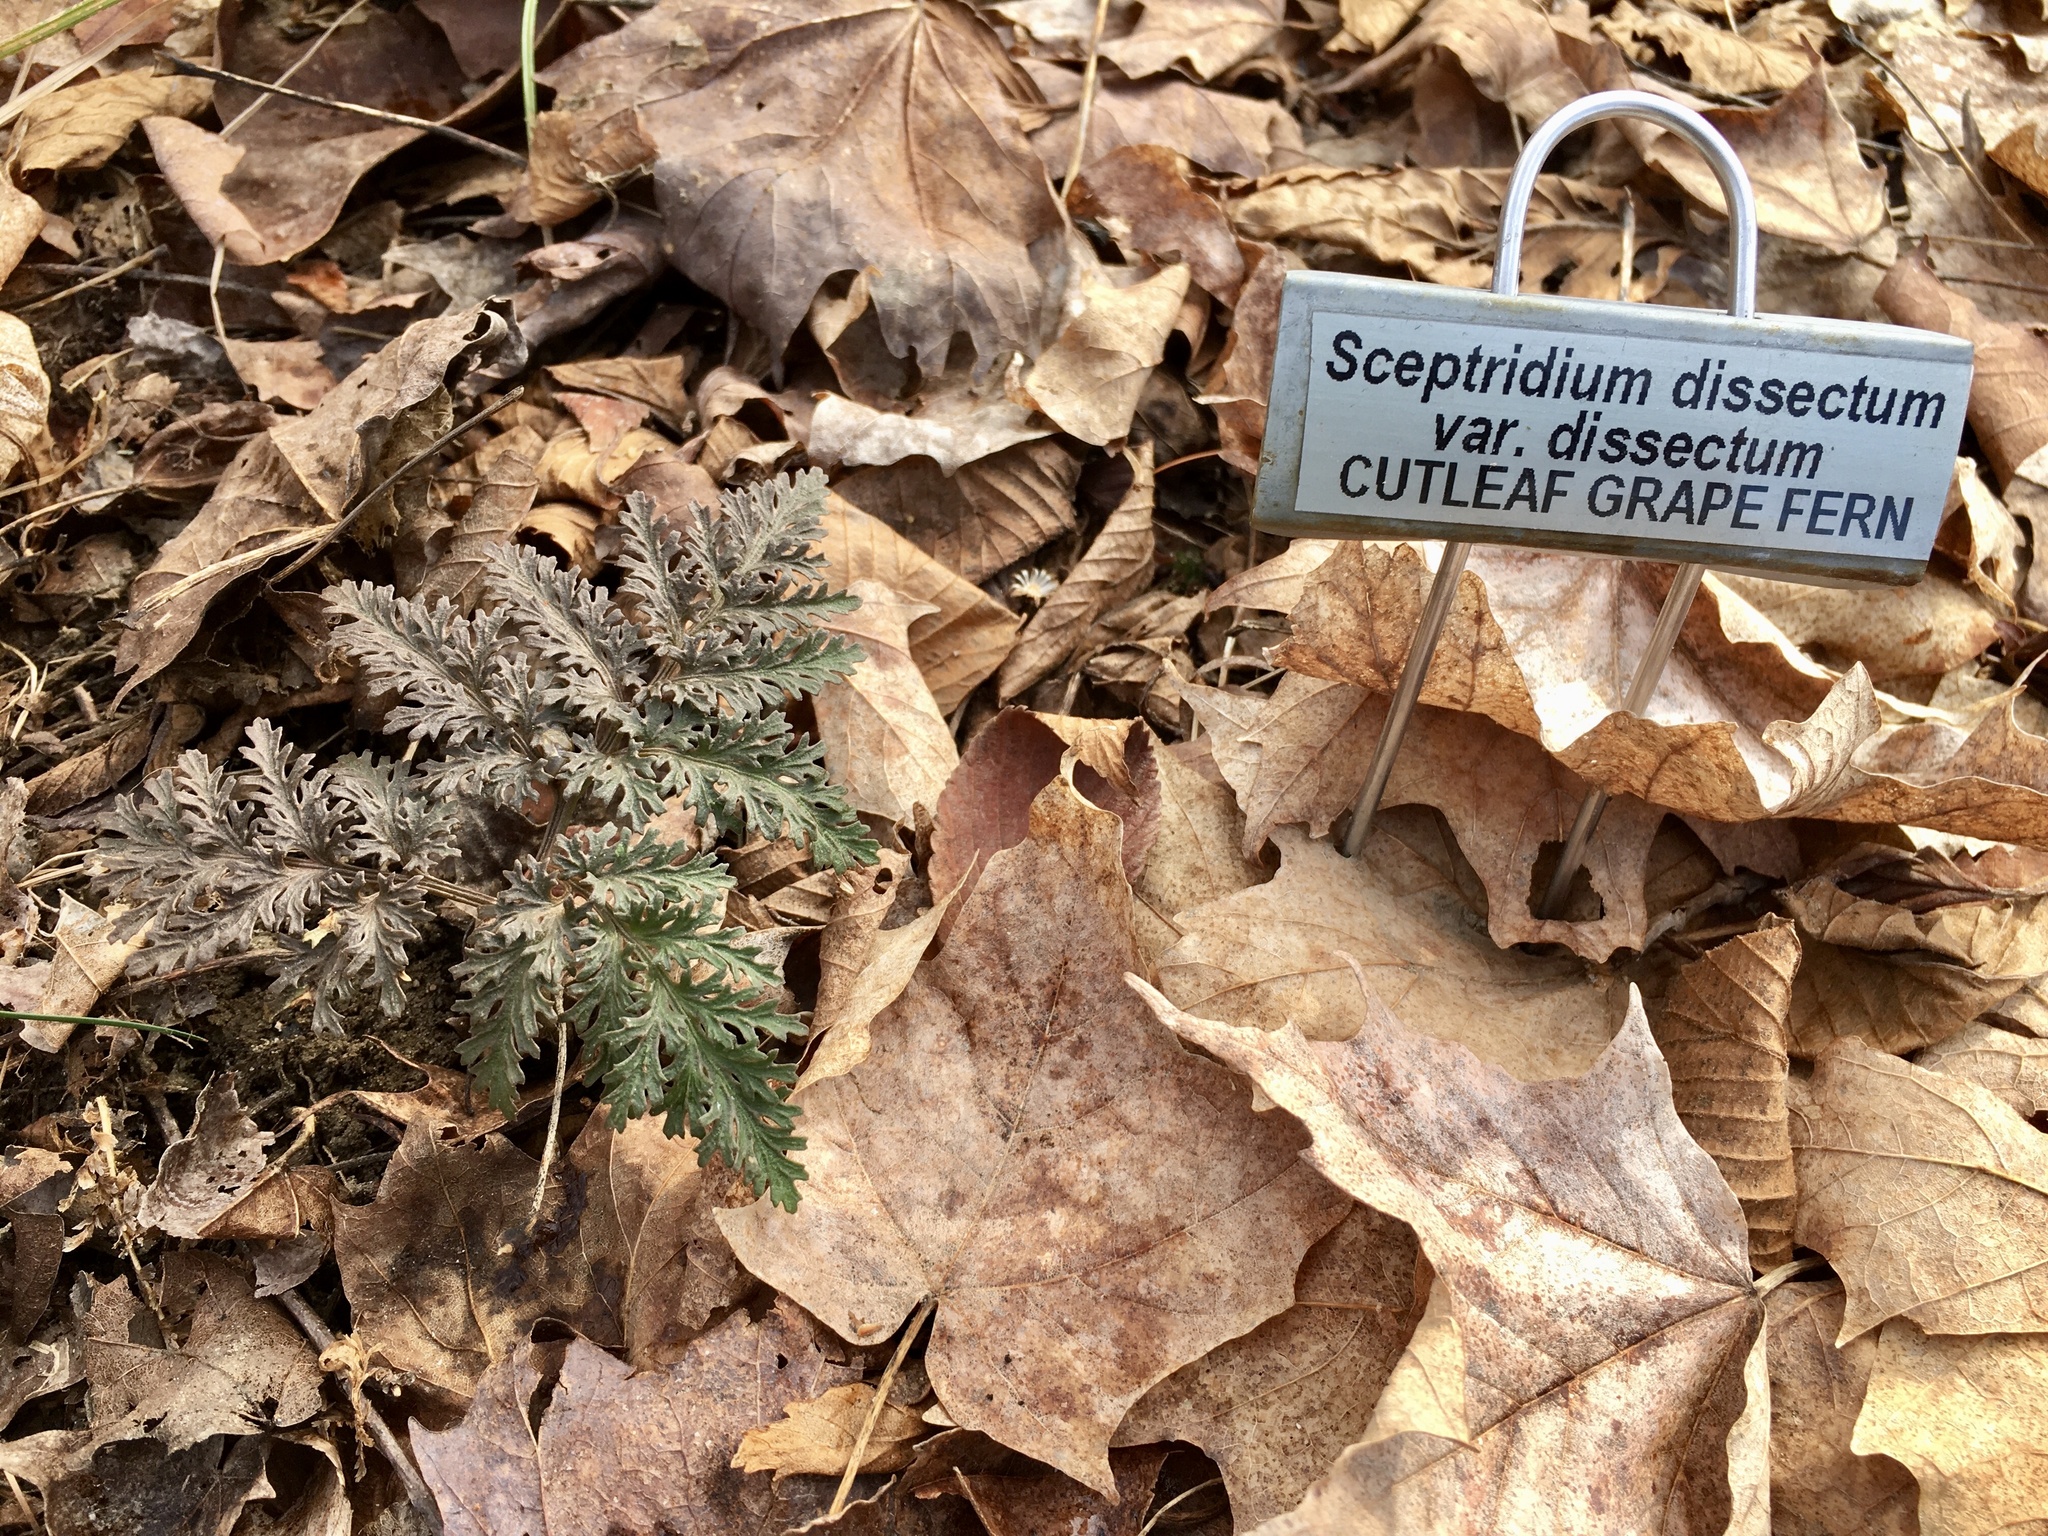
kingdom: Plantae
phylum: Tracheophyta
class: Polypodiopsida
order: Ophioglossales
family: Ophioglossaceae
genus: Sceptridium
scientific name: Sceptridium dissectum
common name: Cut-leaved grapefern
